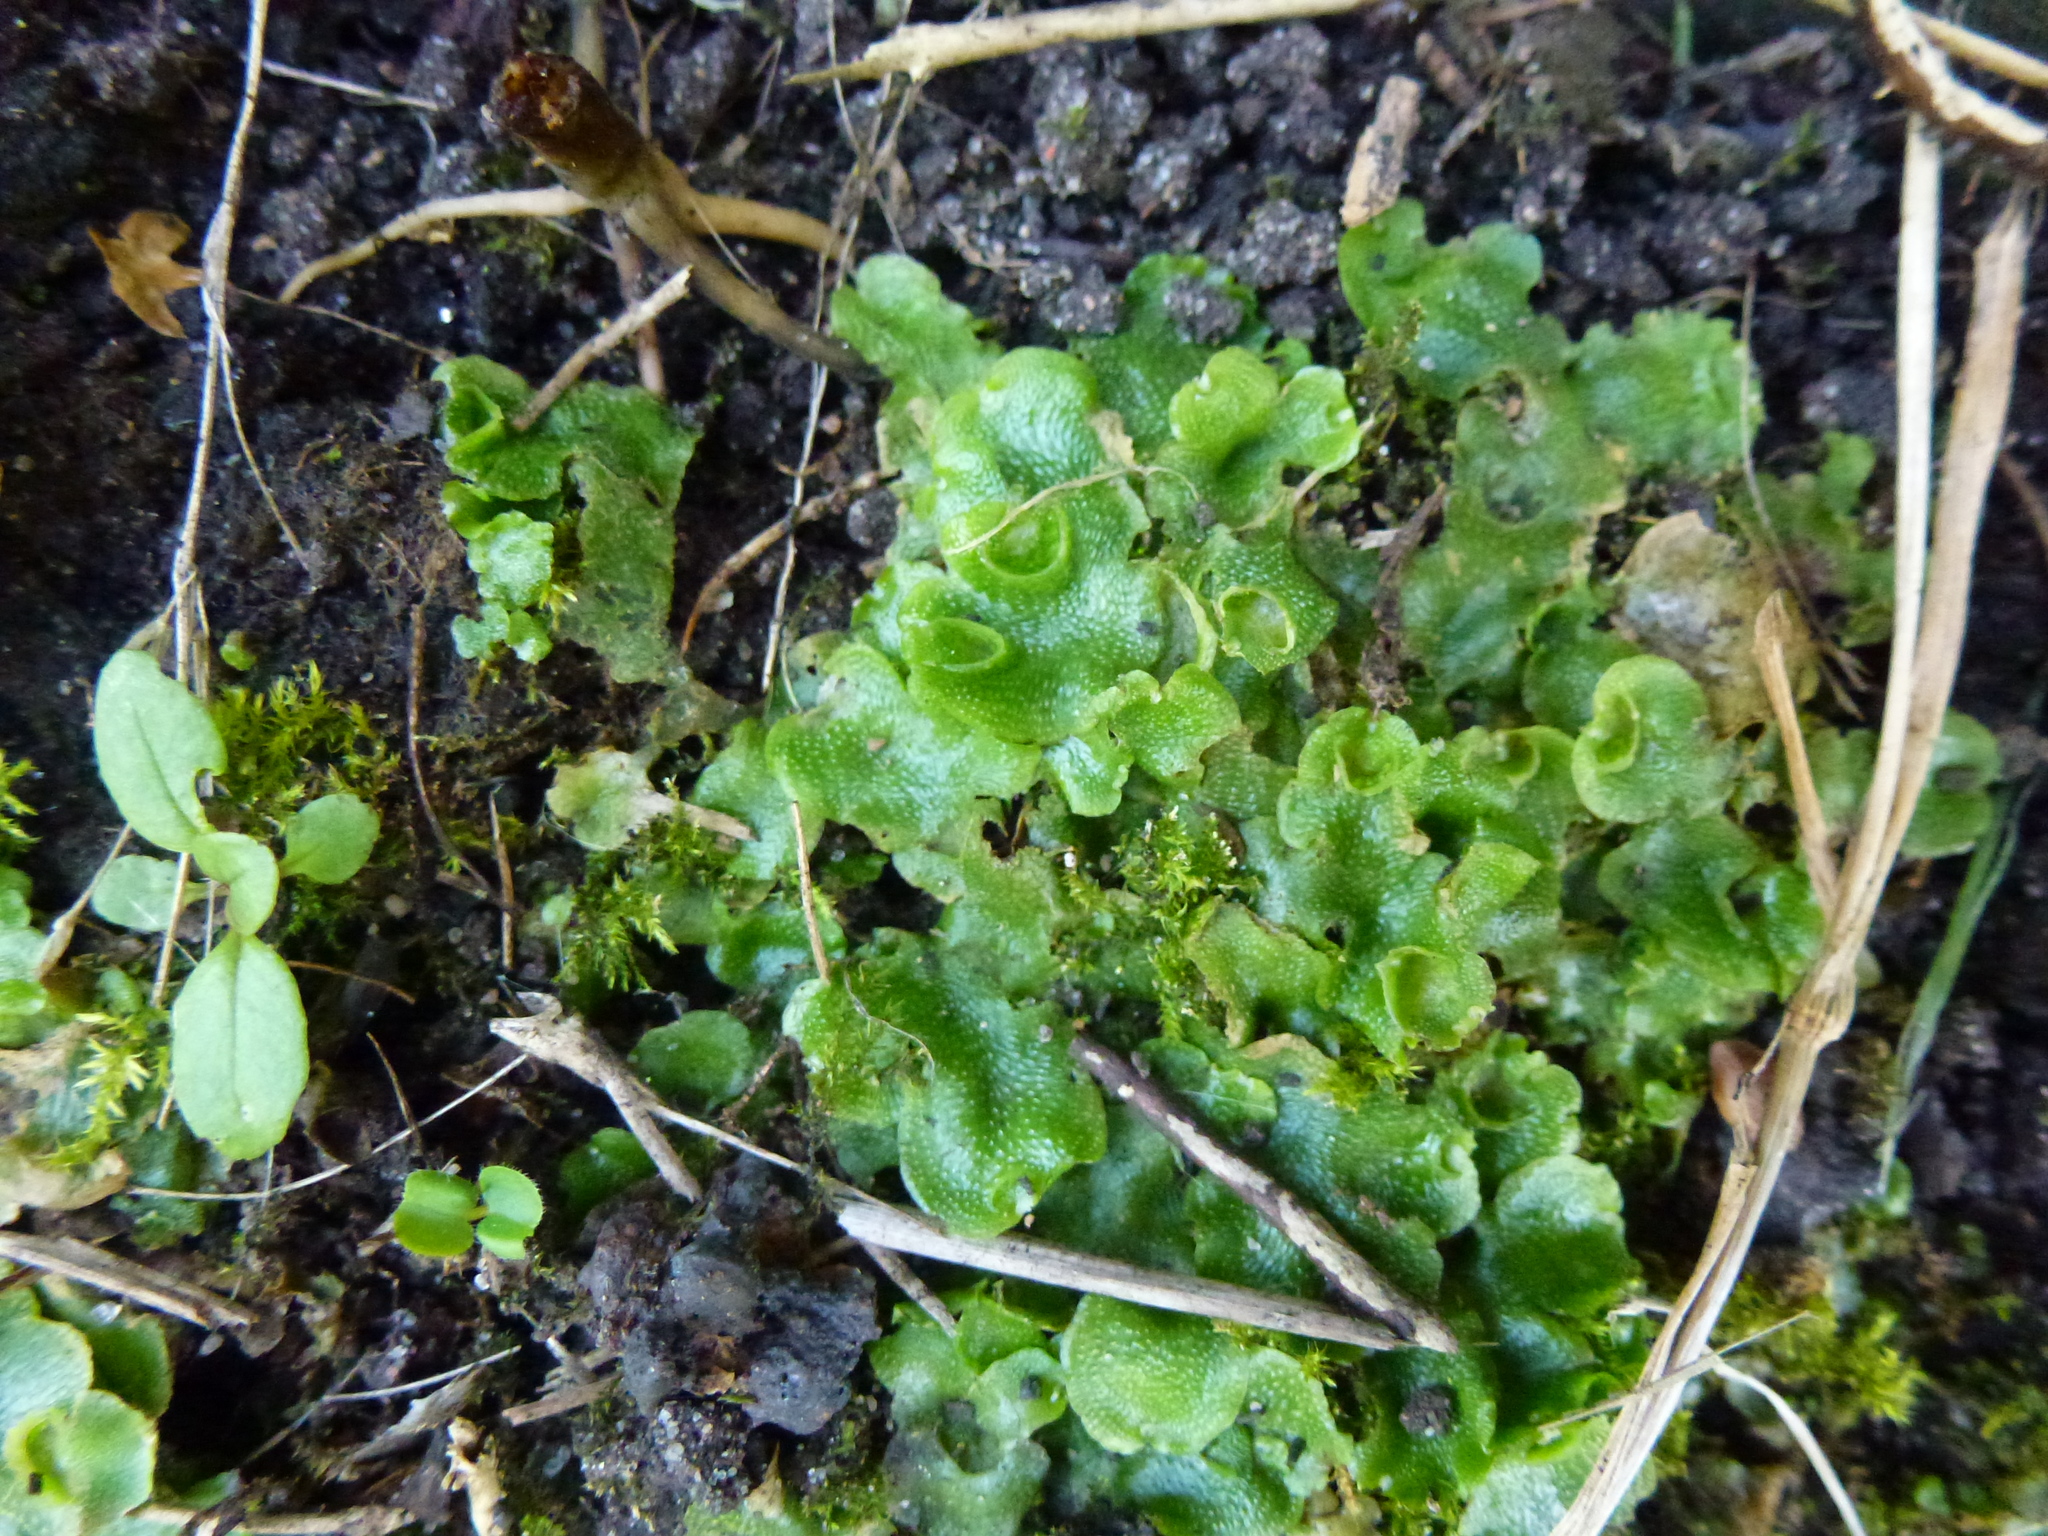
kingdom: Plantae
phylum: Marchantiophyta
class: Marchantiopsida
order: Lunulariales
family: Lunulariaceae
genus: Lunularia
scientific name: Lunularia cruciata
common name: Crescent-cup liverwort
